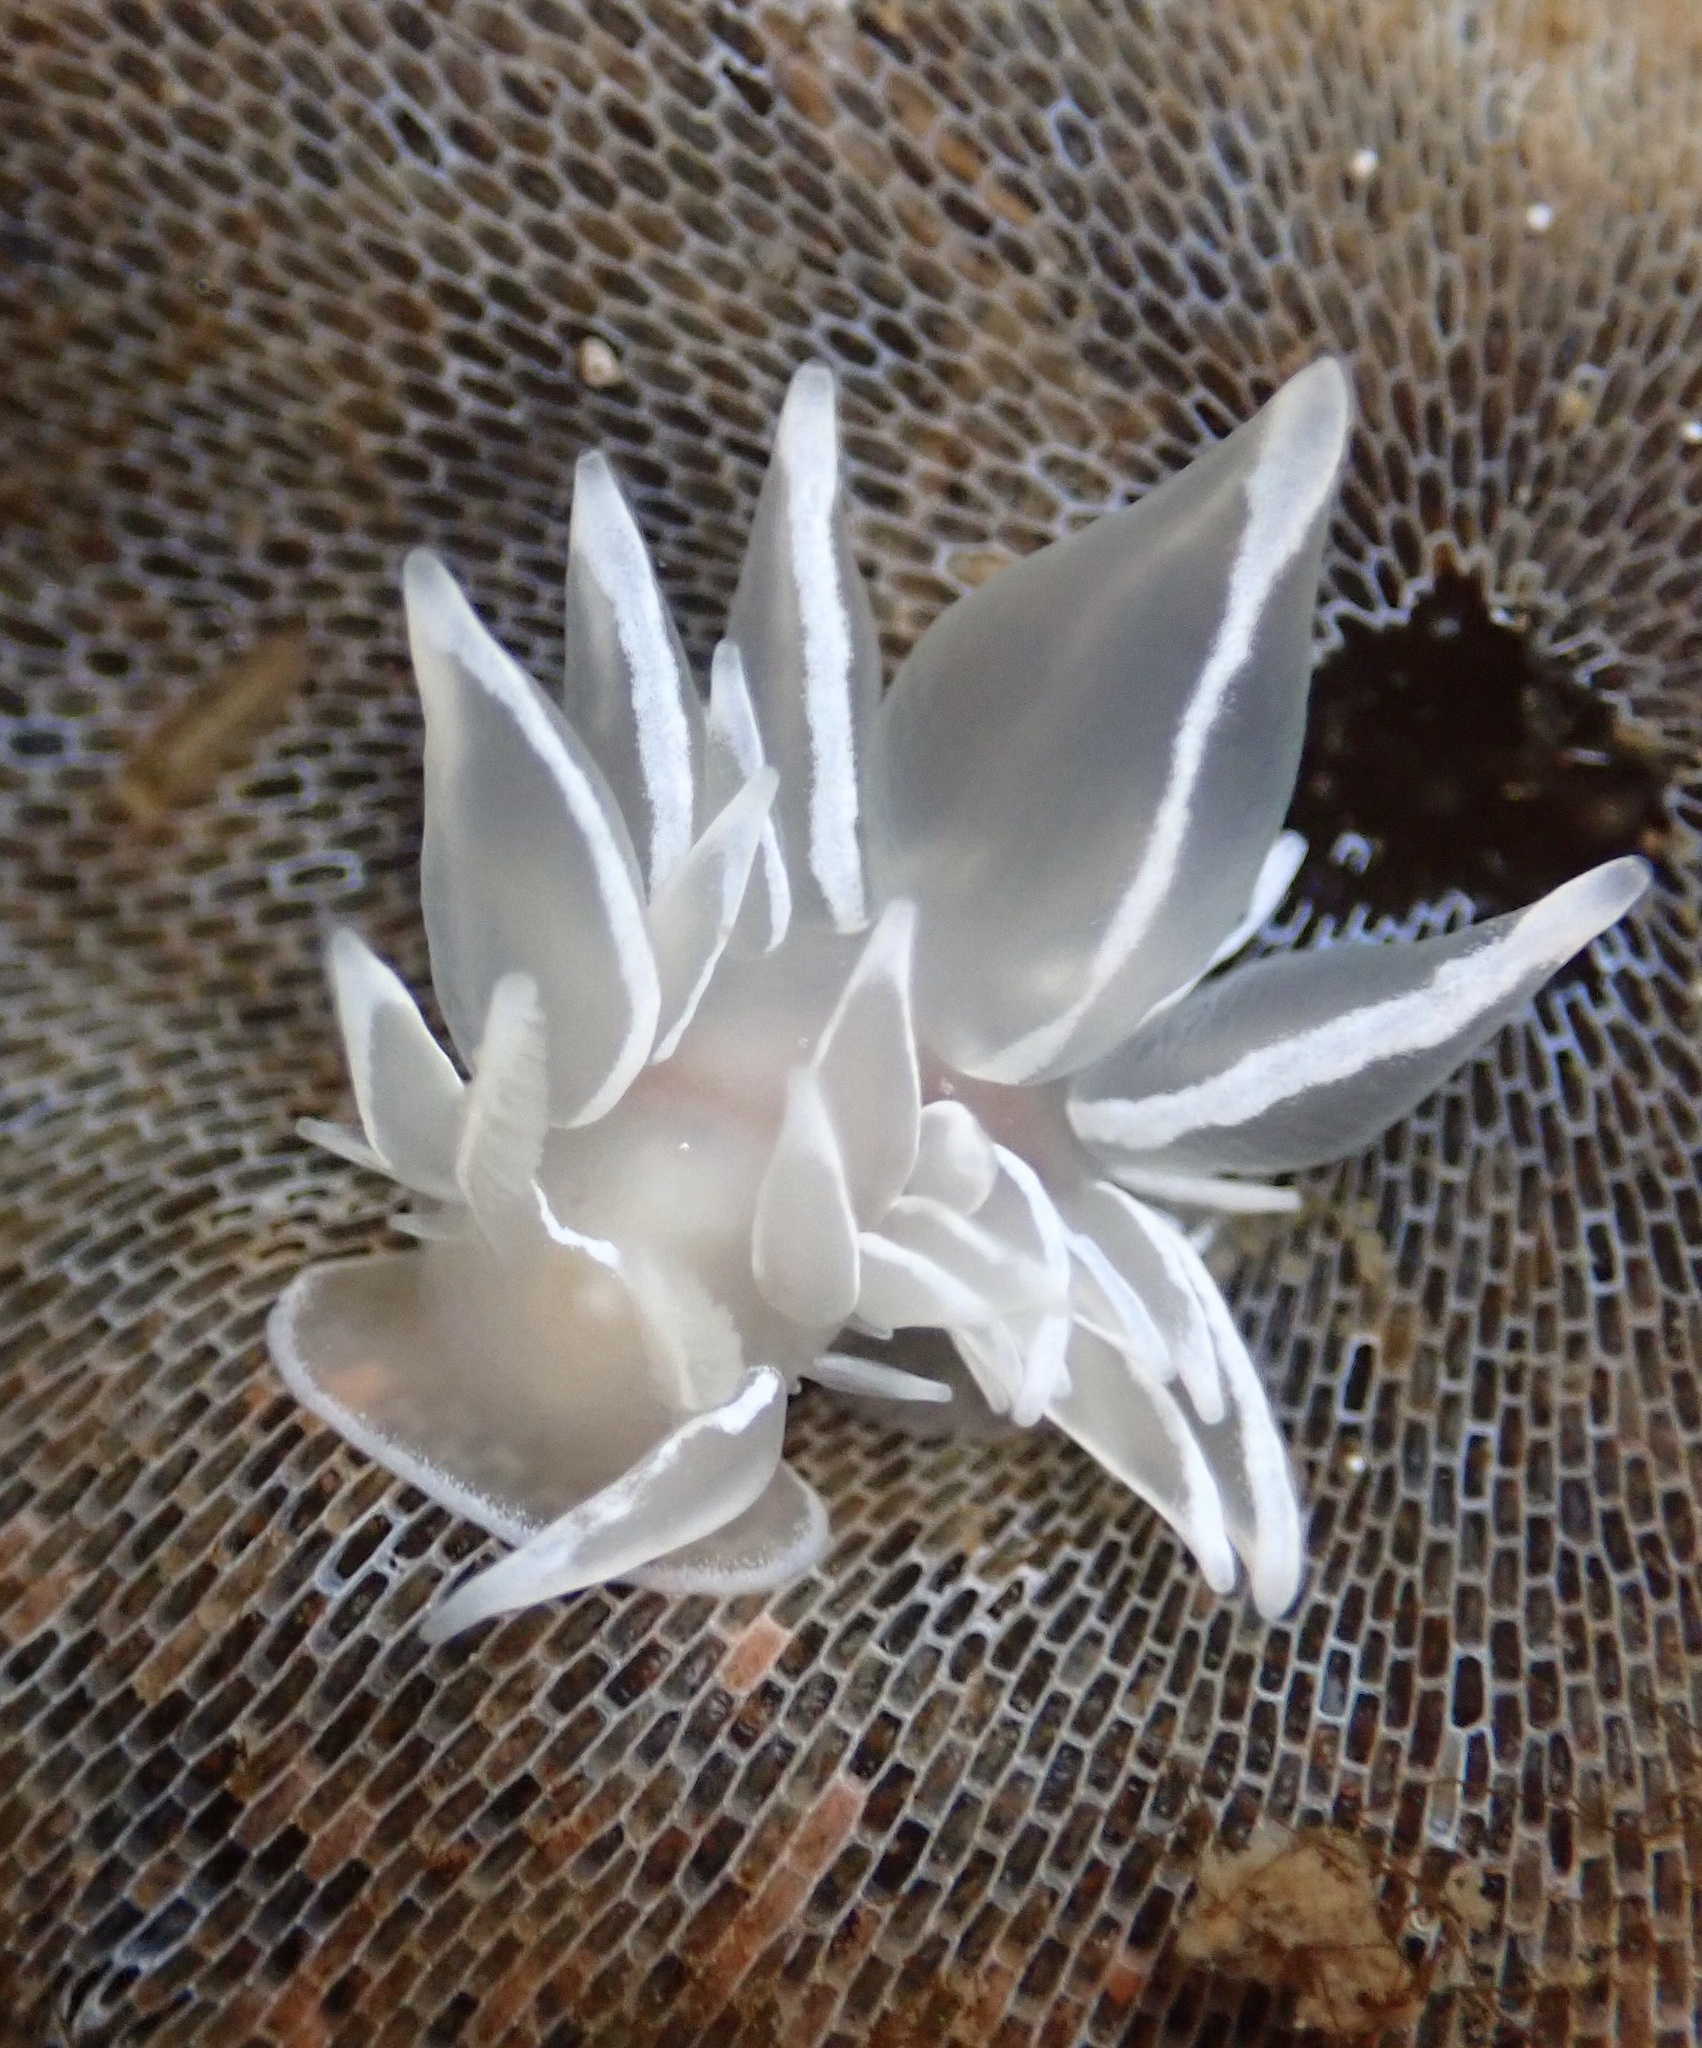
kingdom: Animalia
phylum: Mollusca
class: Gastropoda
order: Nudibranchia
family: Dironidae
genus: Dirona
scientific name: Dirona albolineata
